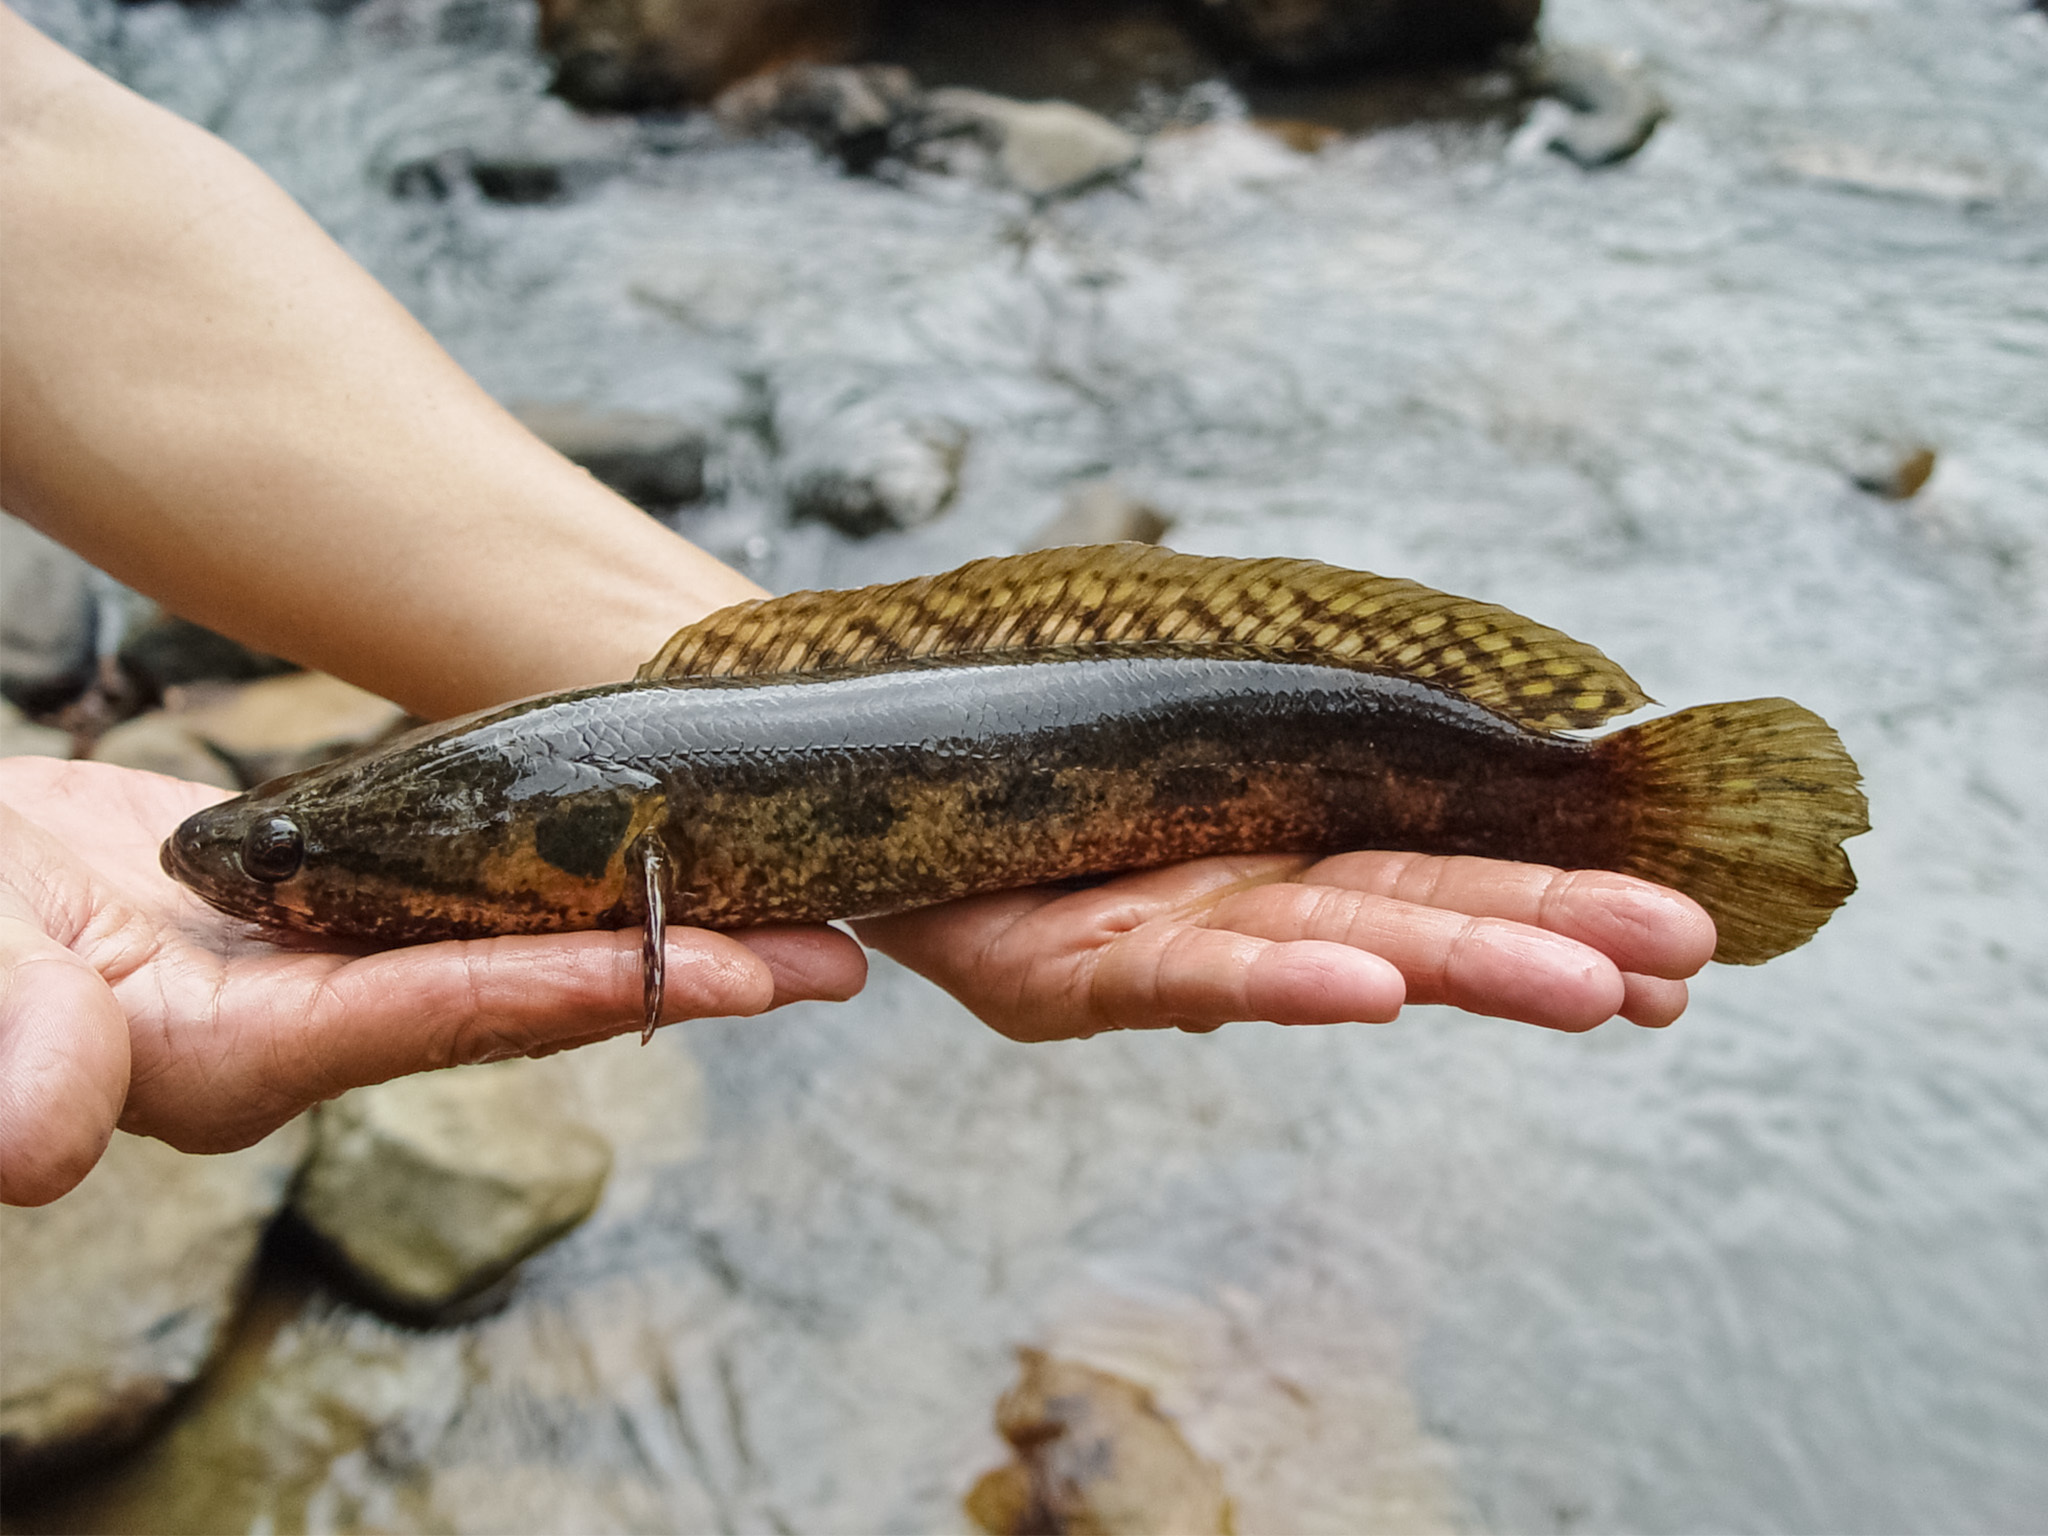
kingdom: Animalia
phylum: Chordata
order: Perciformes
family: Channidae
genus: Channa
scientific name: Channa lucius
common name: Forest snakehead
